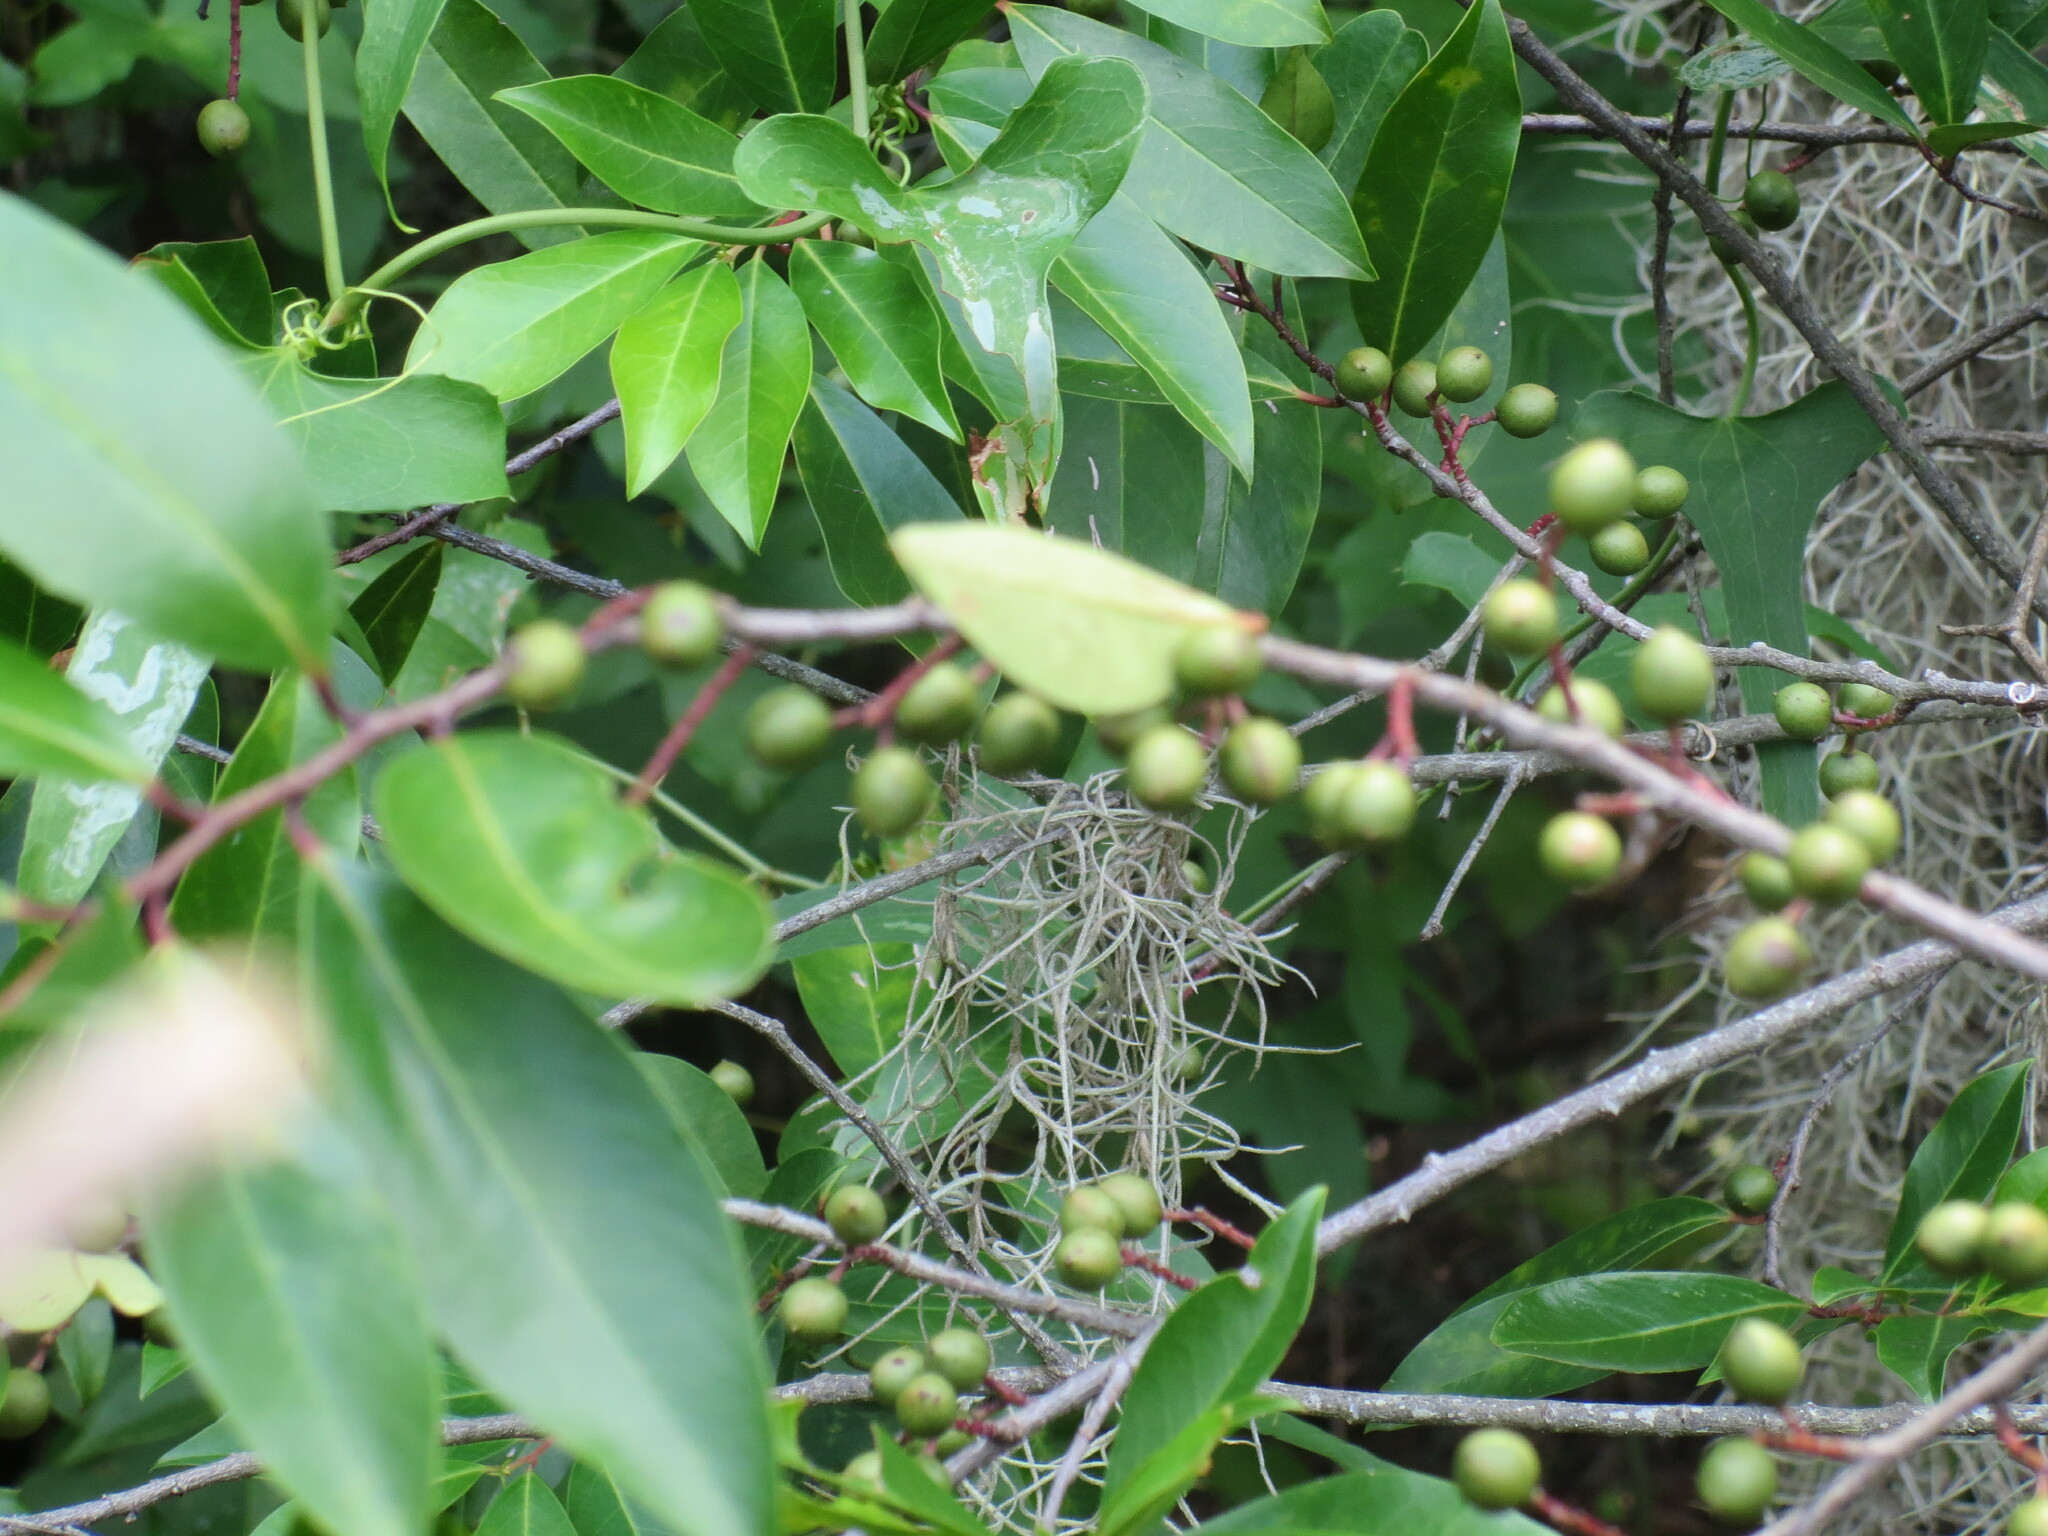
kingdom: Plantae
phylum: Tracheophyta
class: Magnoliopsida
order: Rosales
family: Rosaceae
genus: Prunus
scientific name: Prunus caroliniana
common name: Carolina laurel cherry
